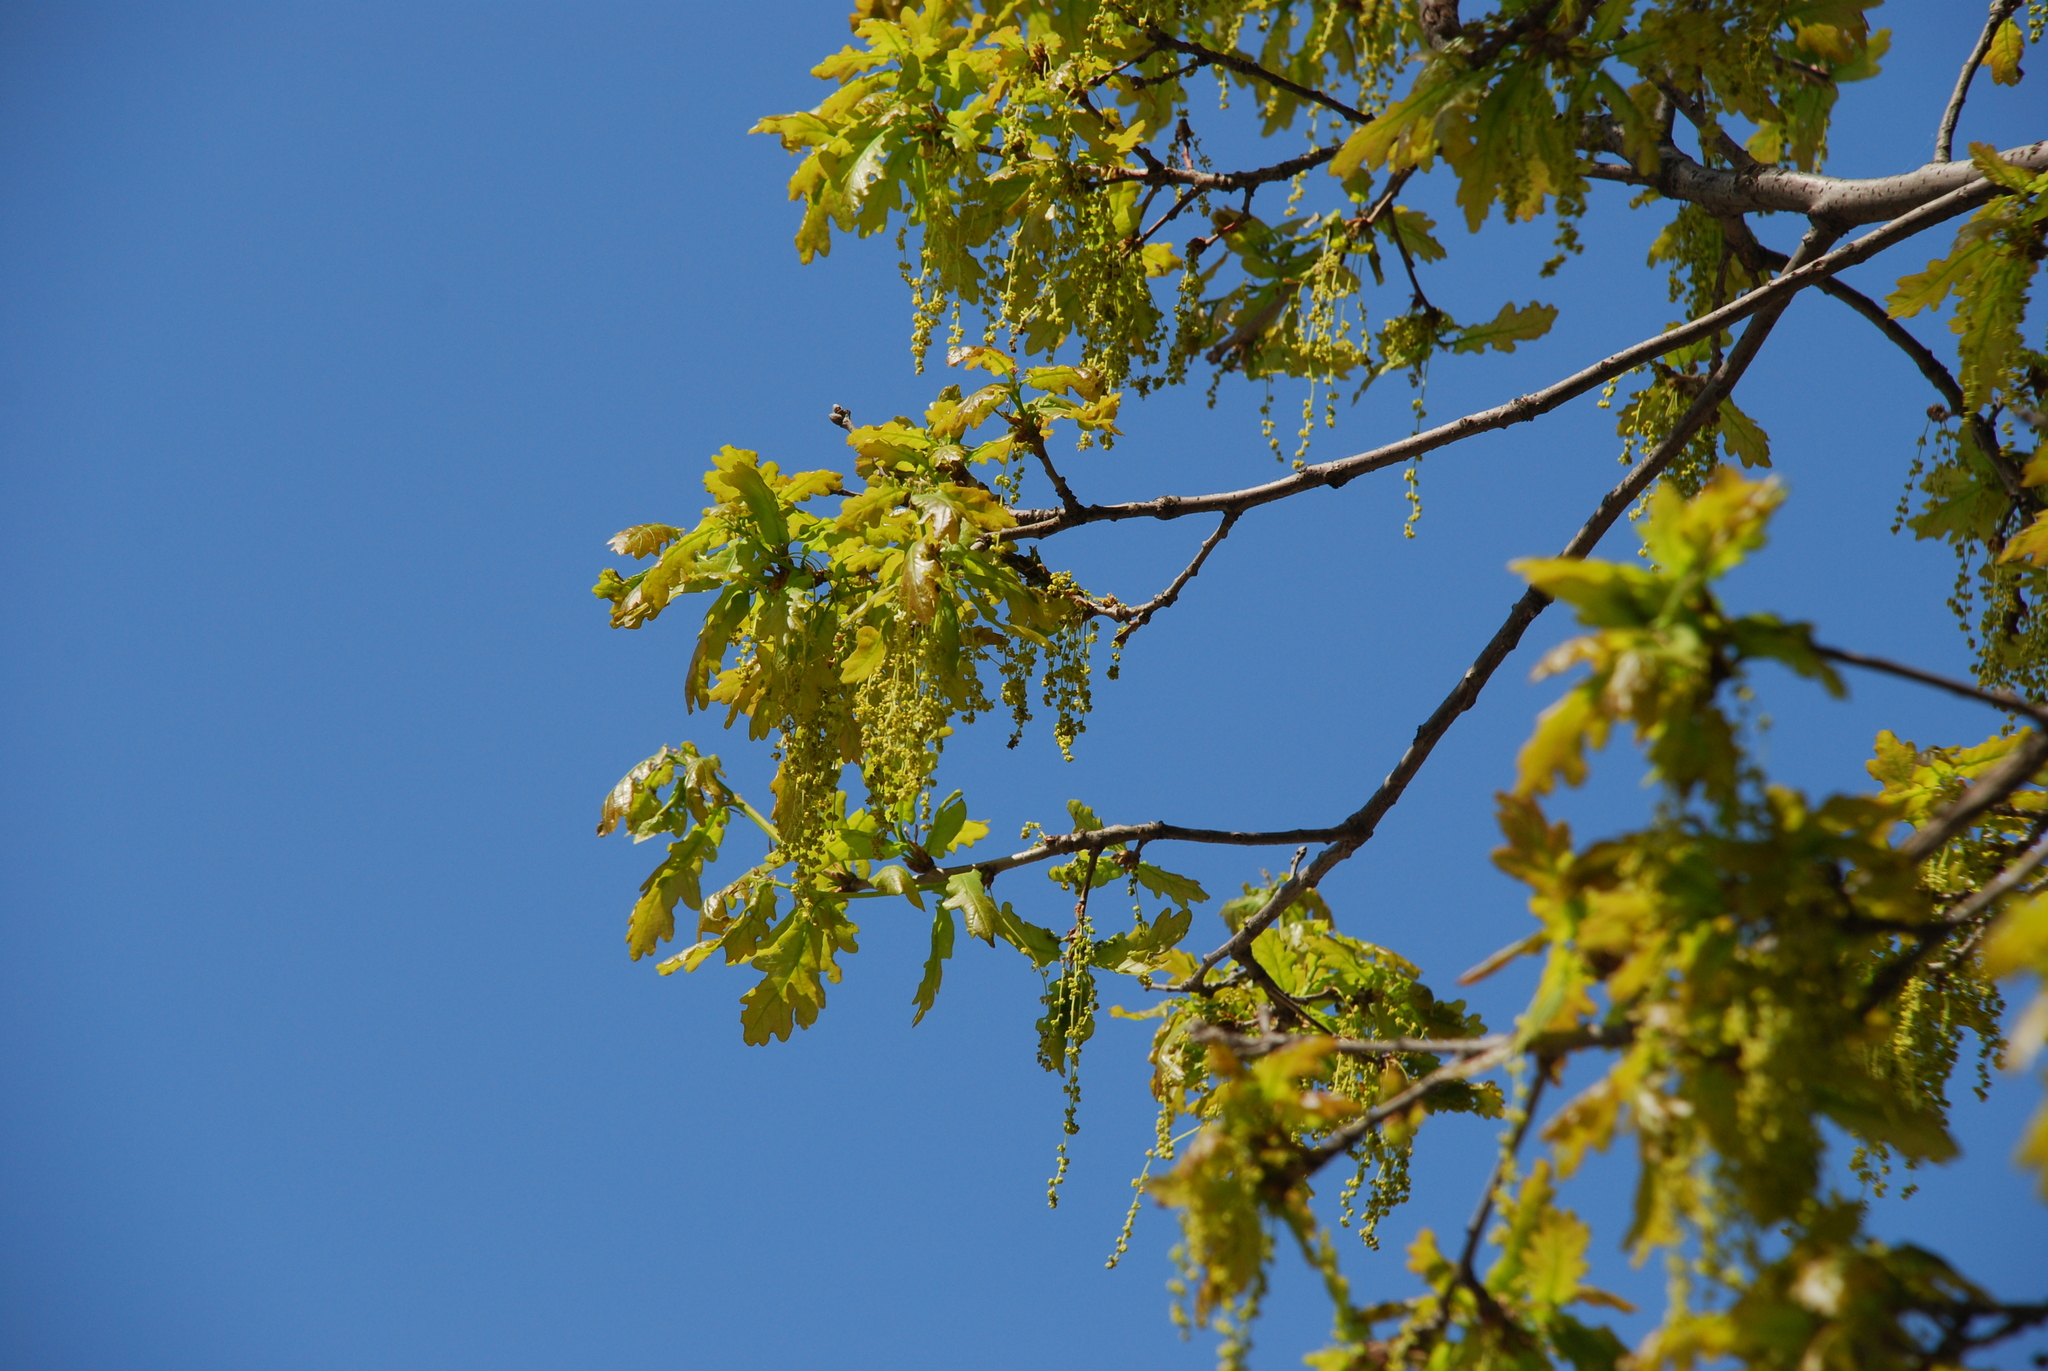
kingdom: Plantae
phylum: Tracheophyta
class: Magnoliopsida
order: Fagales
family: Fagaceae
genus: Quercus
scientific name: Quercus robur
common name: Pedunculate oak
